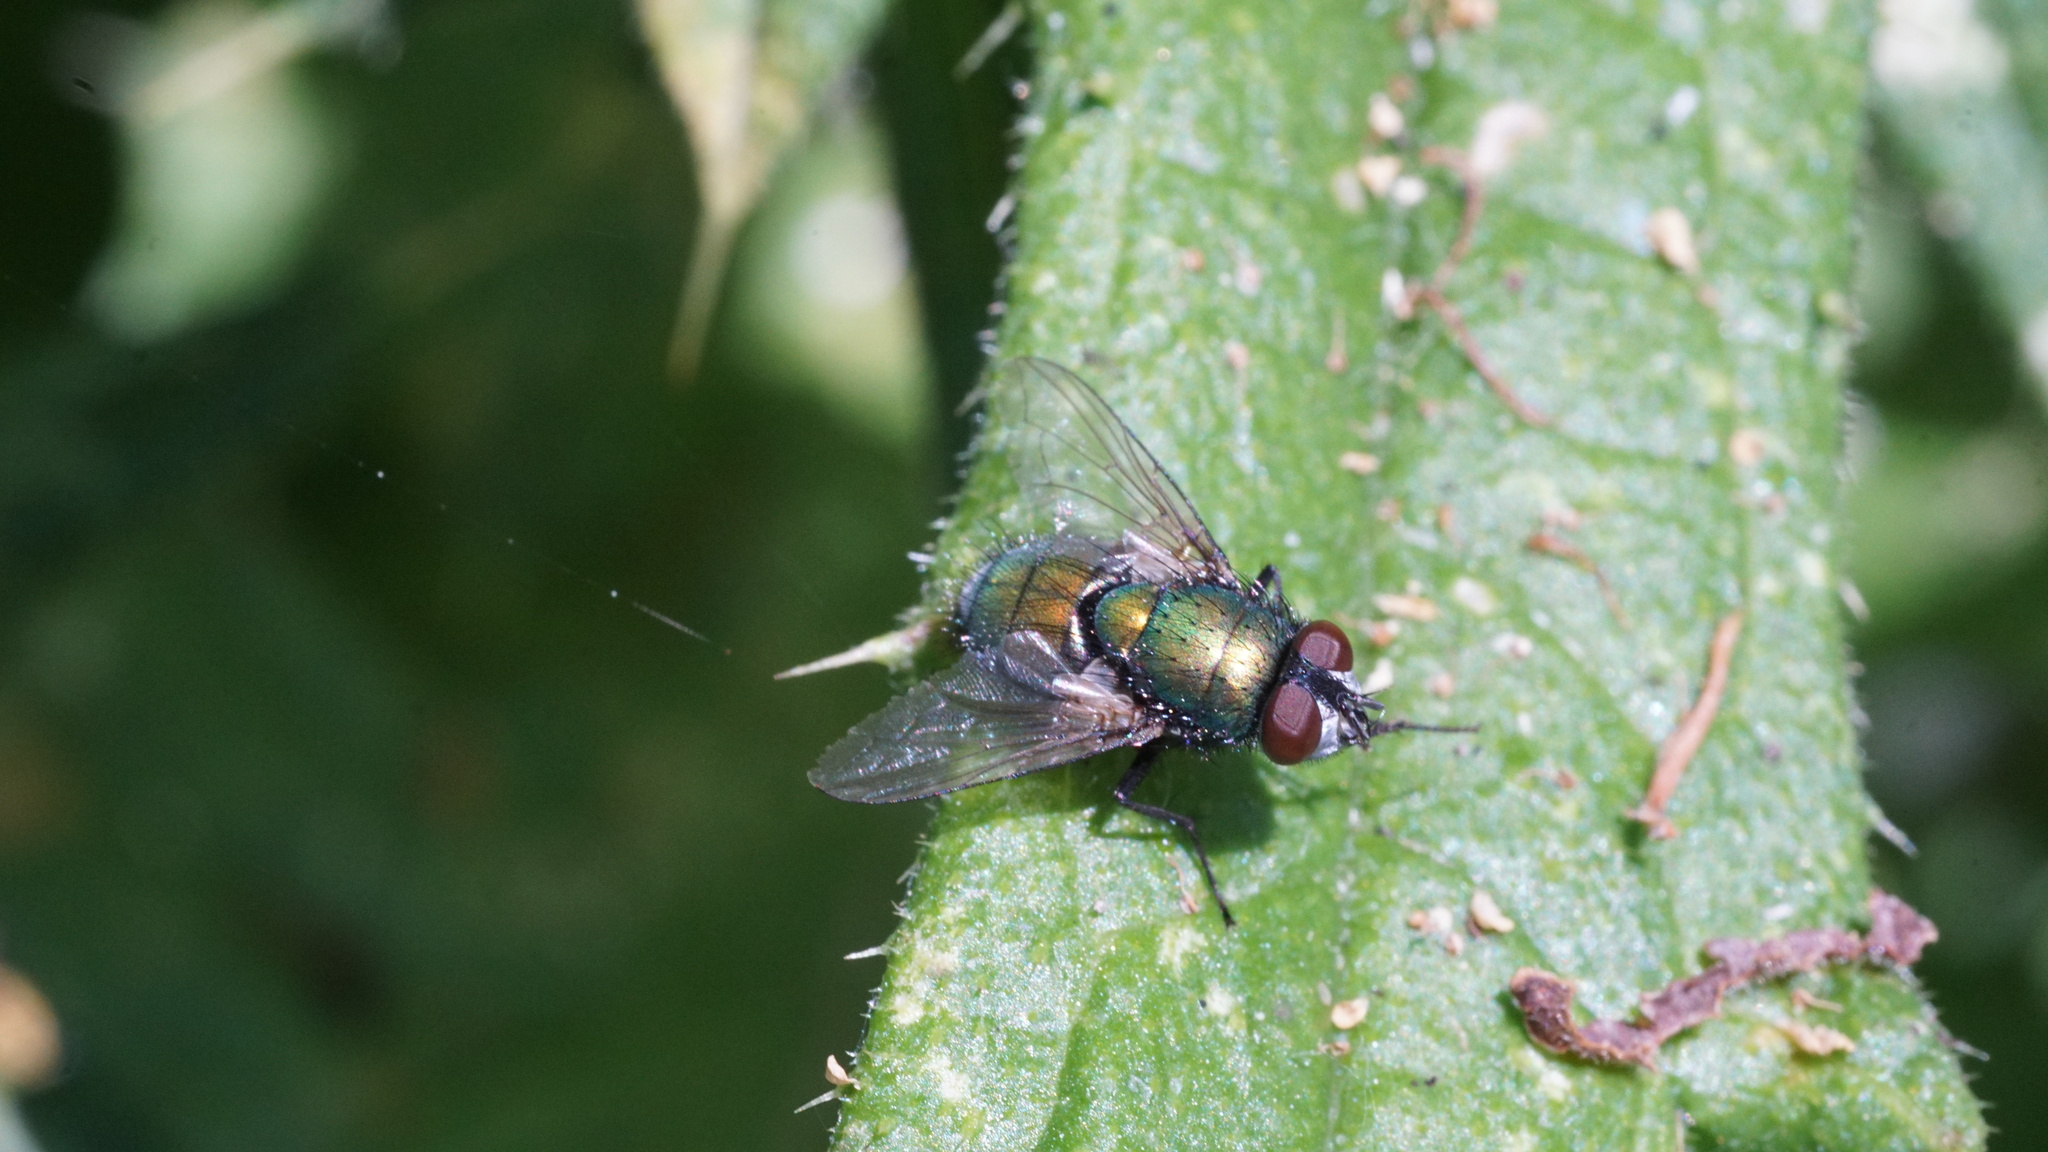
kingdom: Animalia
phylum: Arthropoda
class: Insecta
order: Diptera
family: Calliphoridae
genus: Lucilia
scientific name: Lucilia
